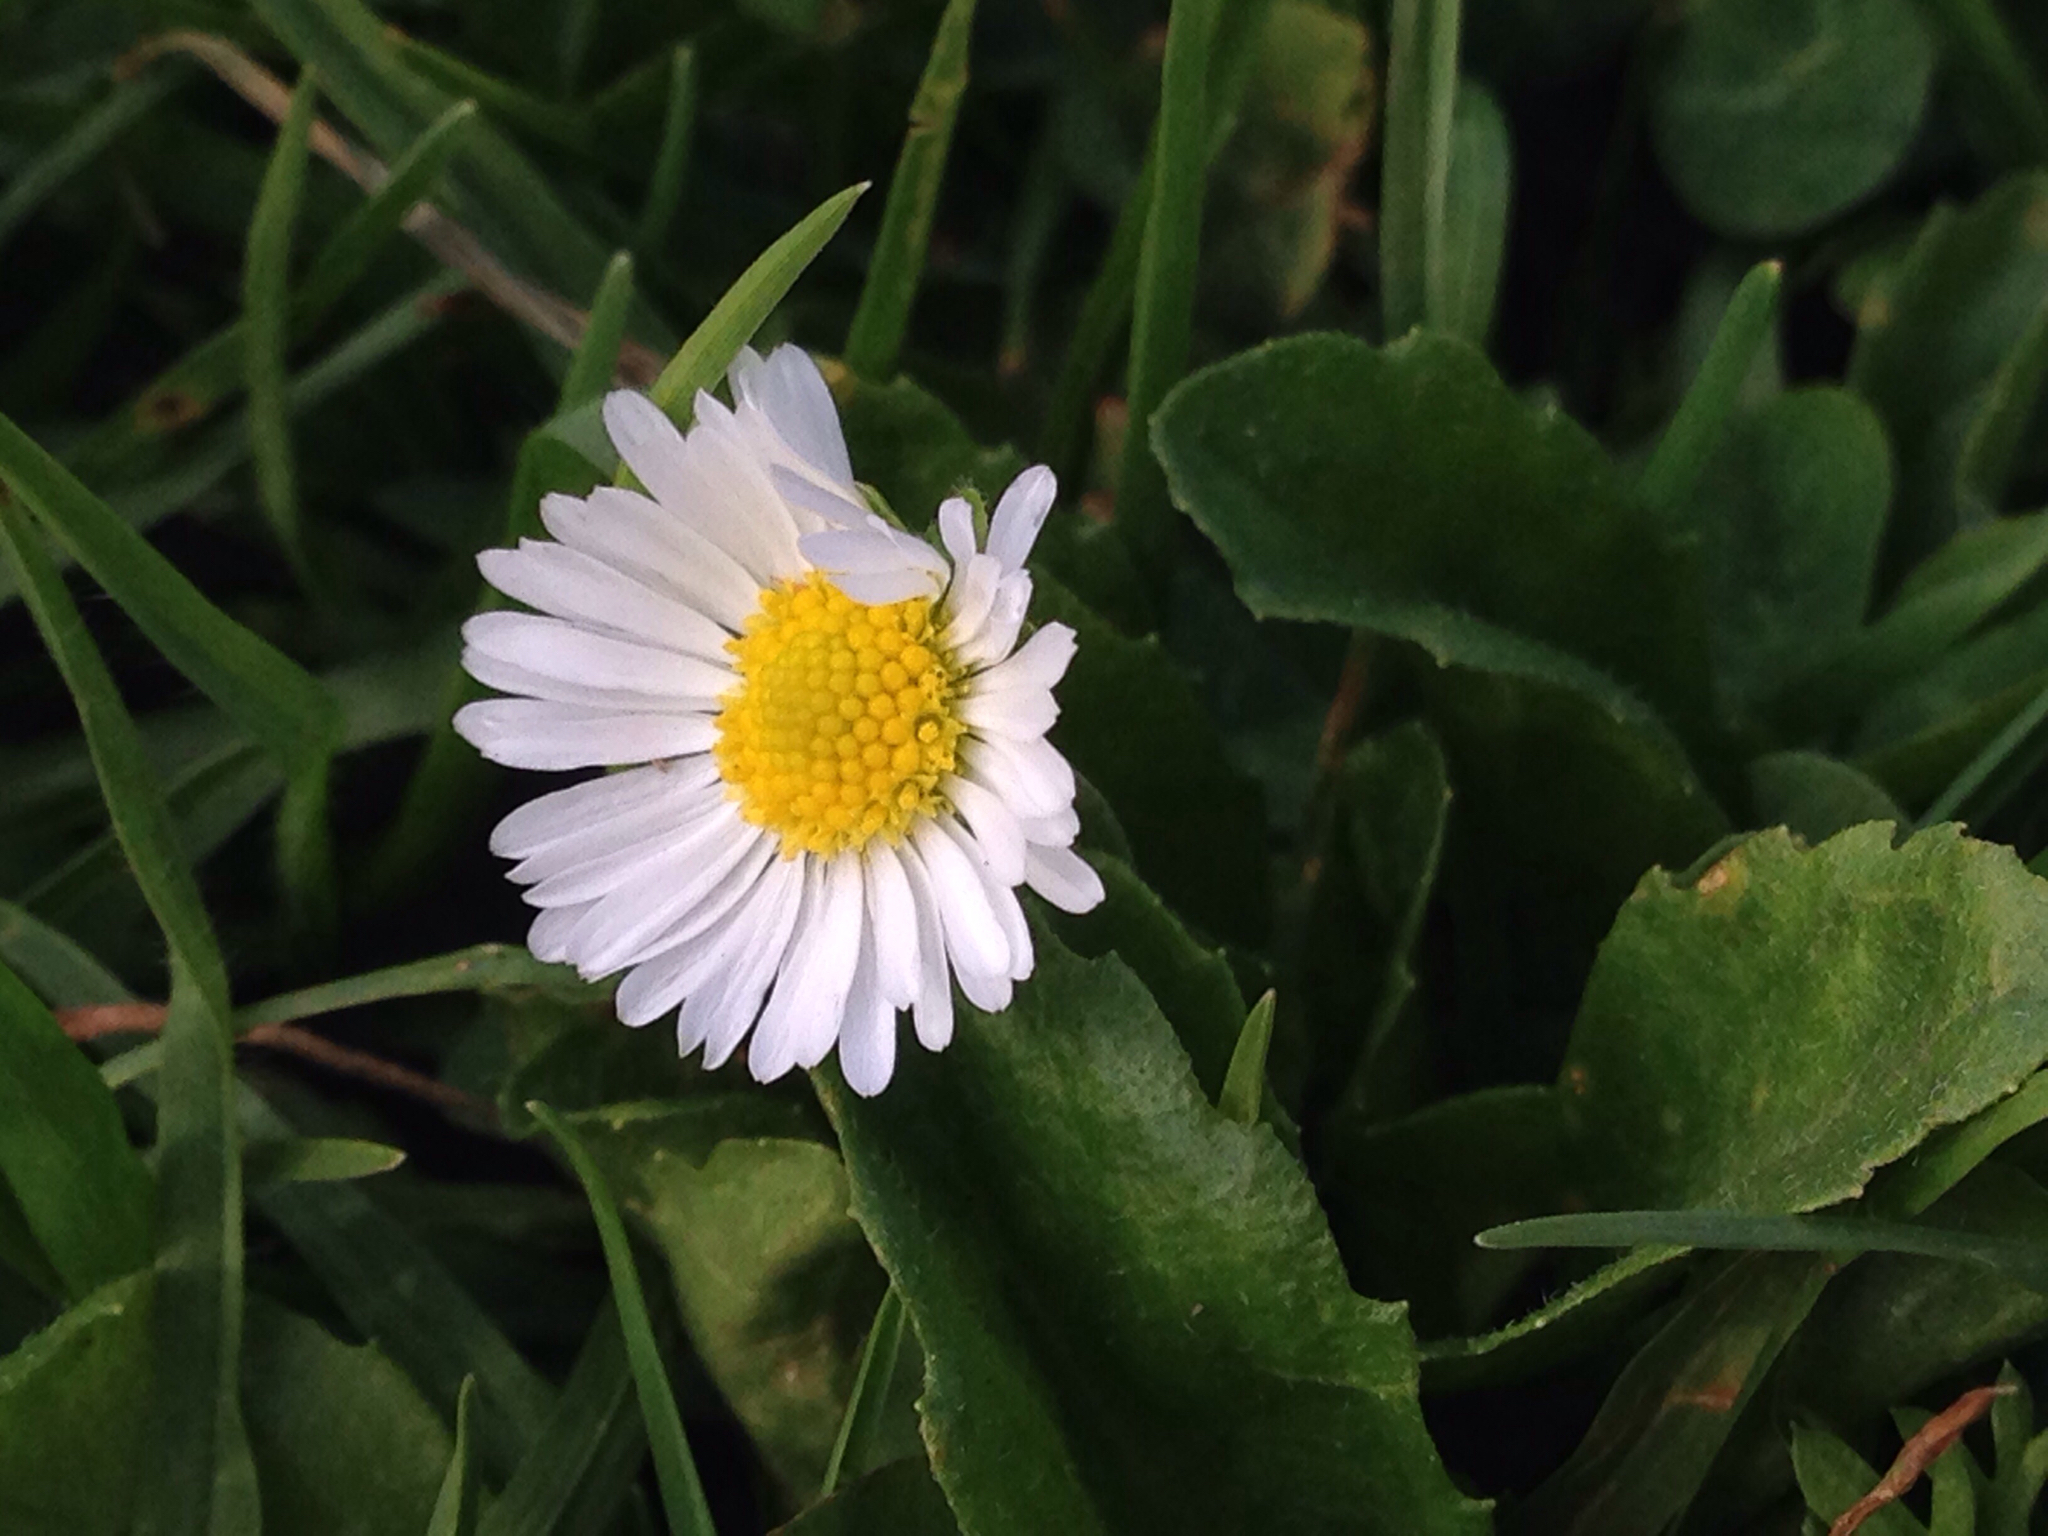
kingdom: Plantae
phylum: Tracheophyta
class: Magnoliopsida
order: Asterales
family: Asteraceae
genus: Bellis
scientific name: Bellis perennis
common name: Lawndaisy
